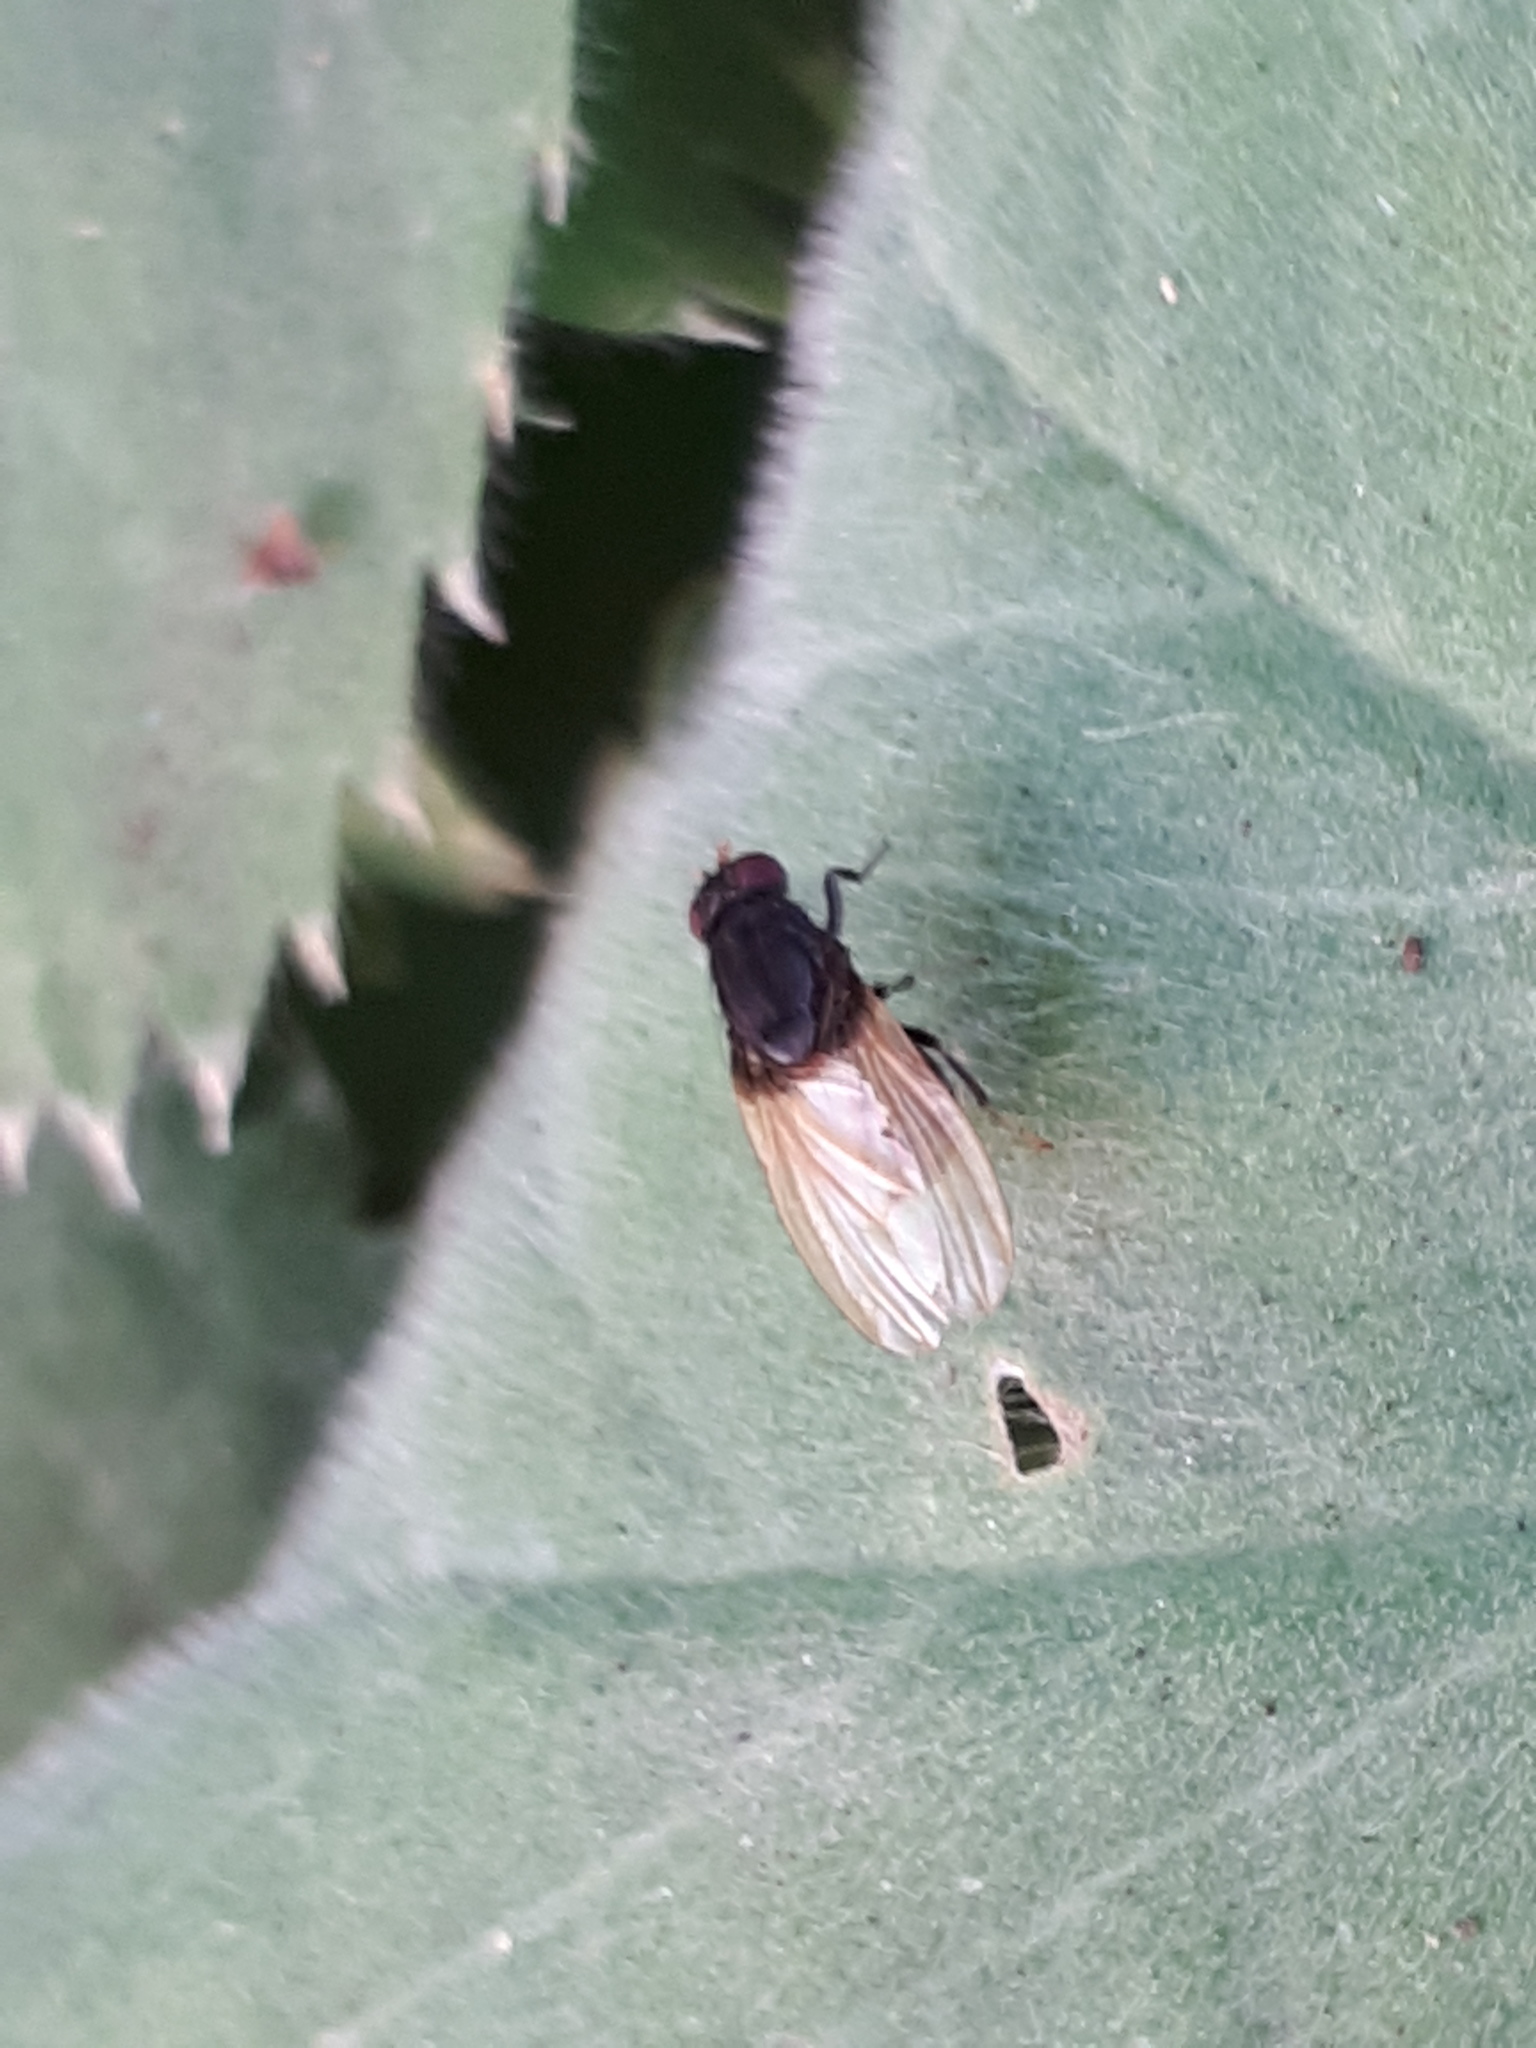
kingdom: Animalia
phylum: Arthropoda
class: Insecta
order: Diptera
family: Lauxaniidae
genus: Minettia
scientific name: Minettia longipennis
